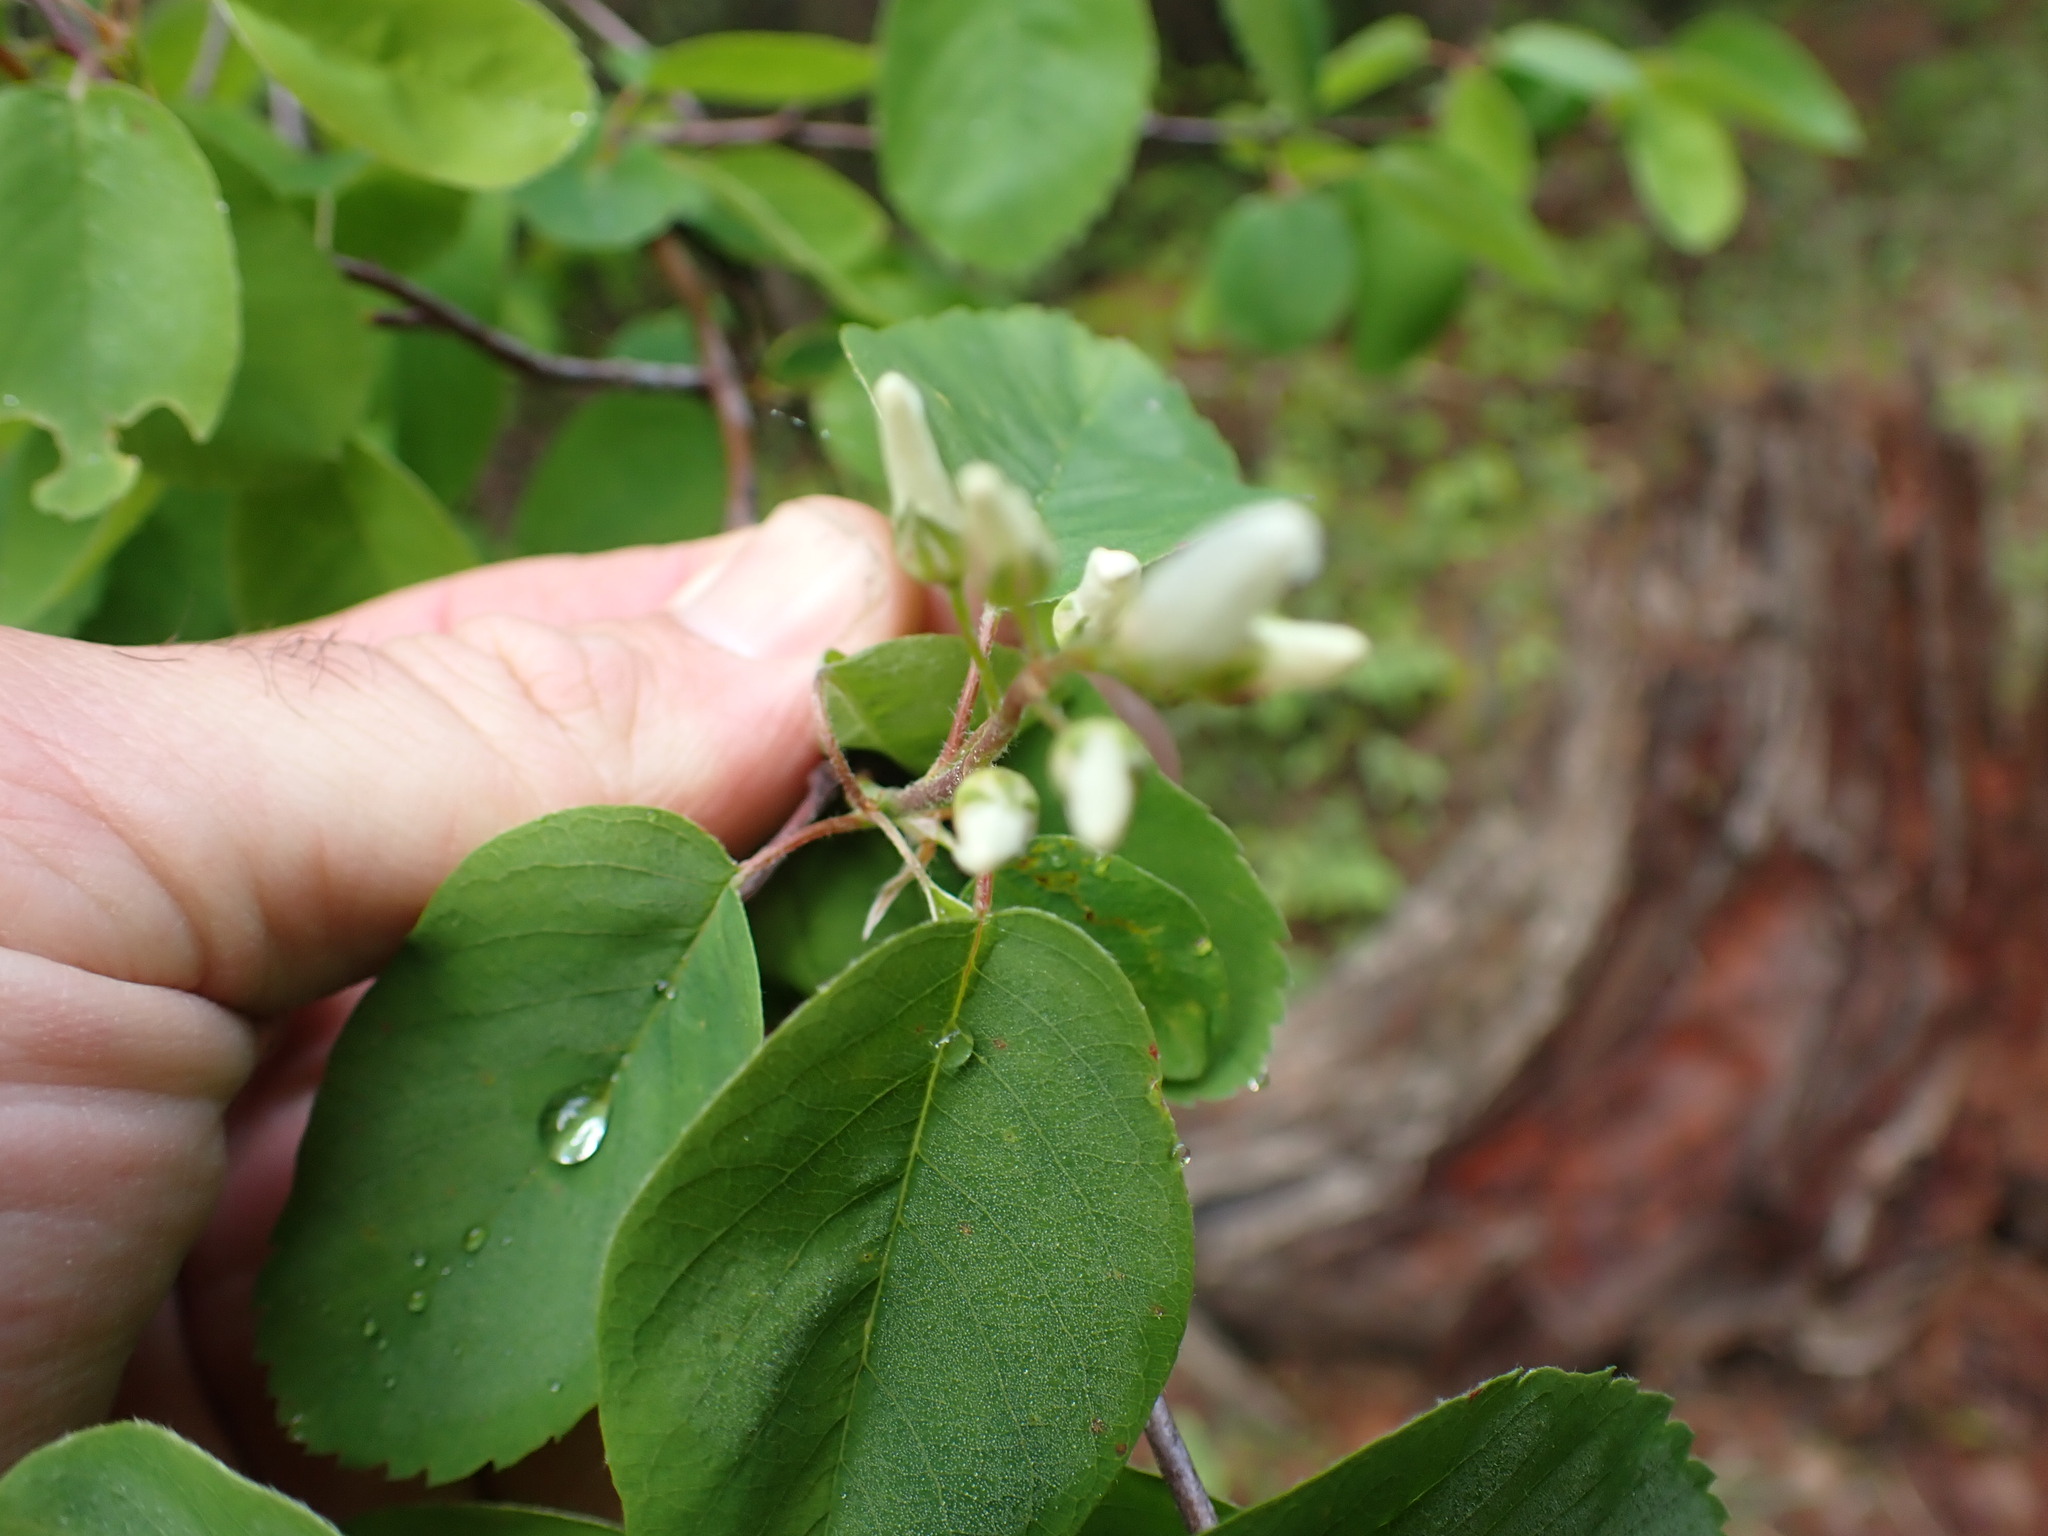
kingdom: Plantae
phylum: Tracheophyta
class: Magnoliopsida
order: Rosales
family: Rosaceae
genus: Amelanchier
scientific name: Amelanchier alnifolia
